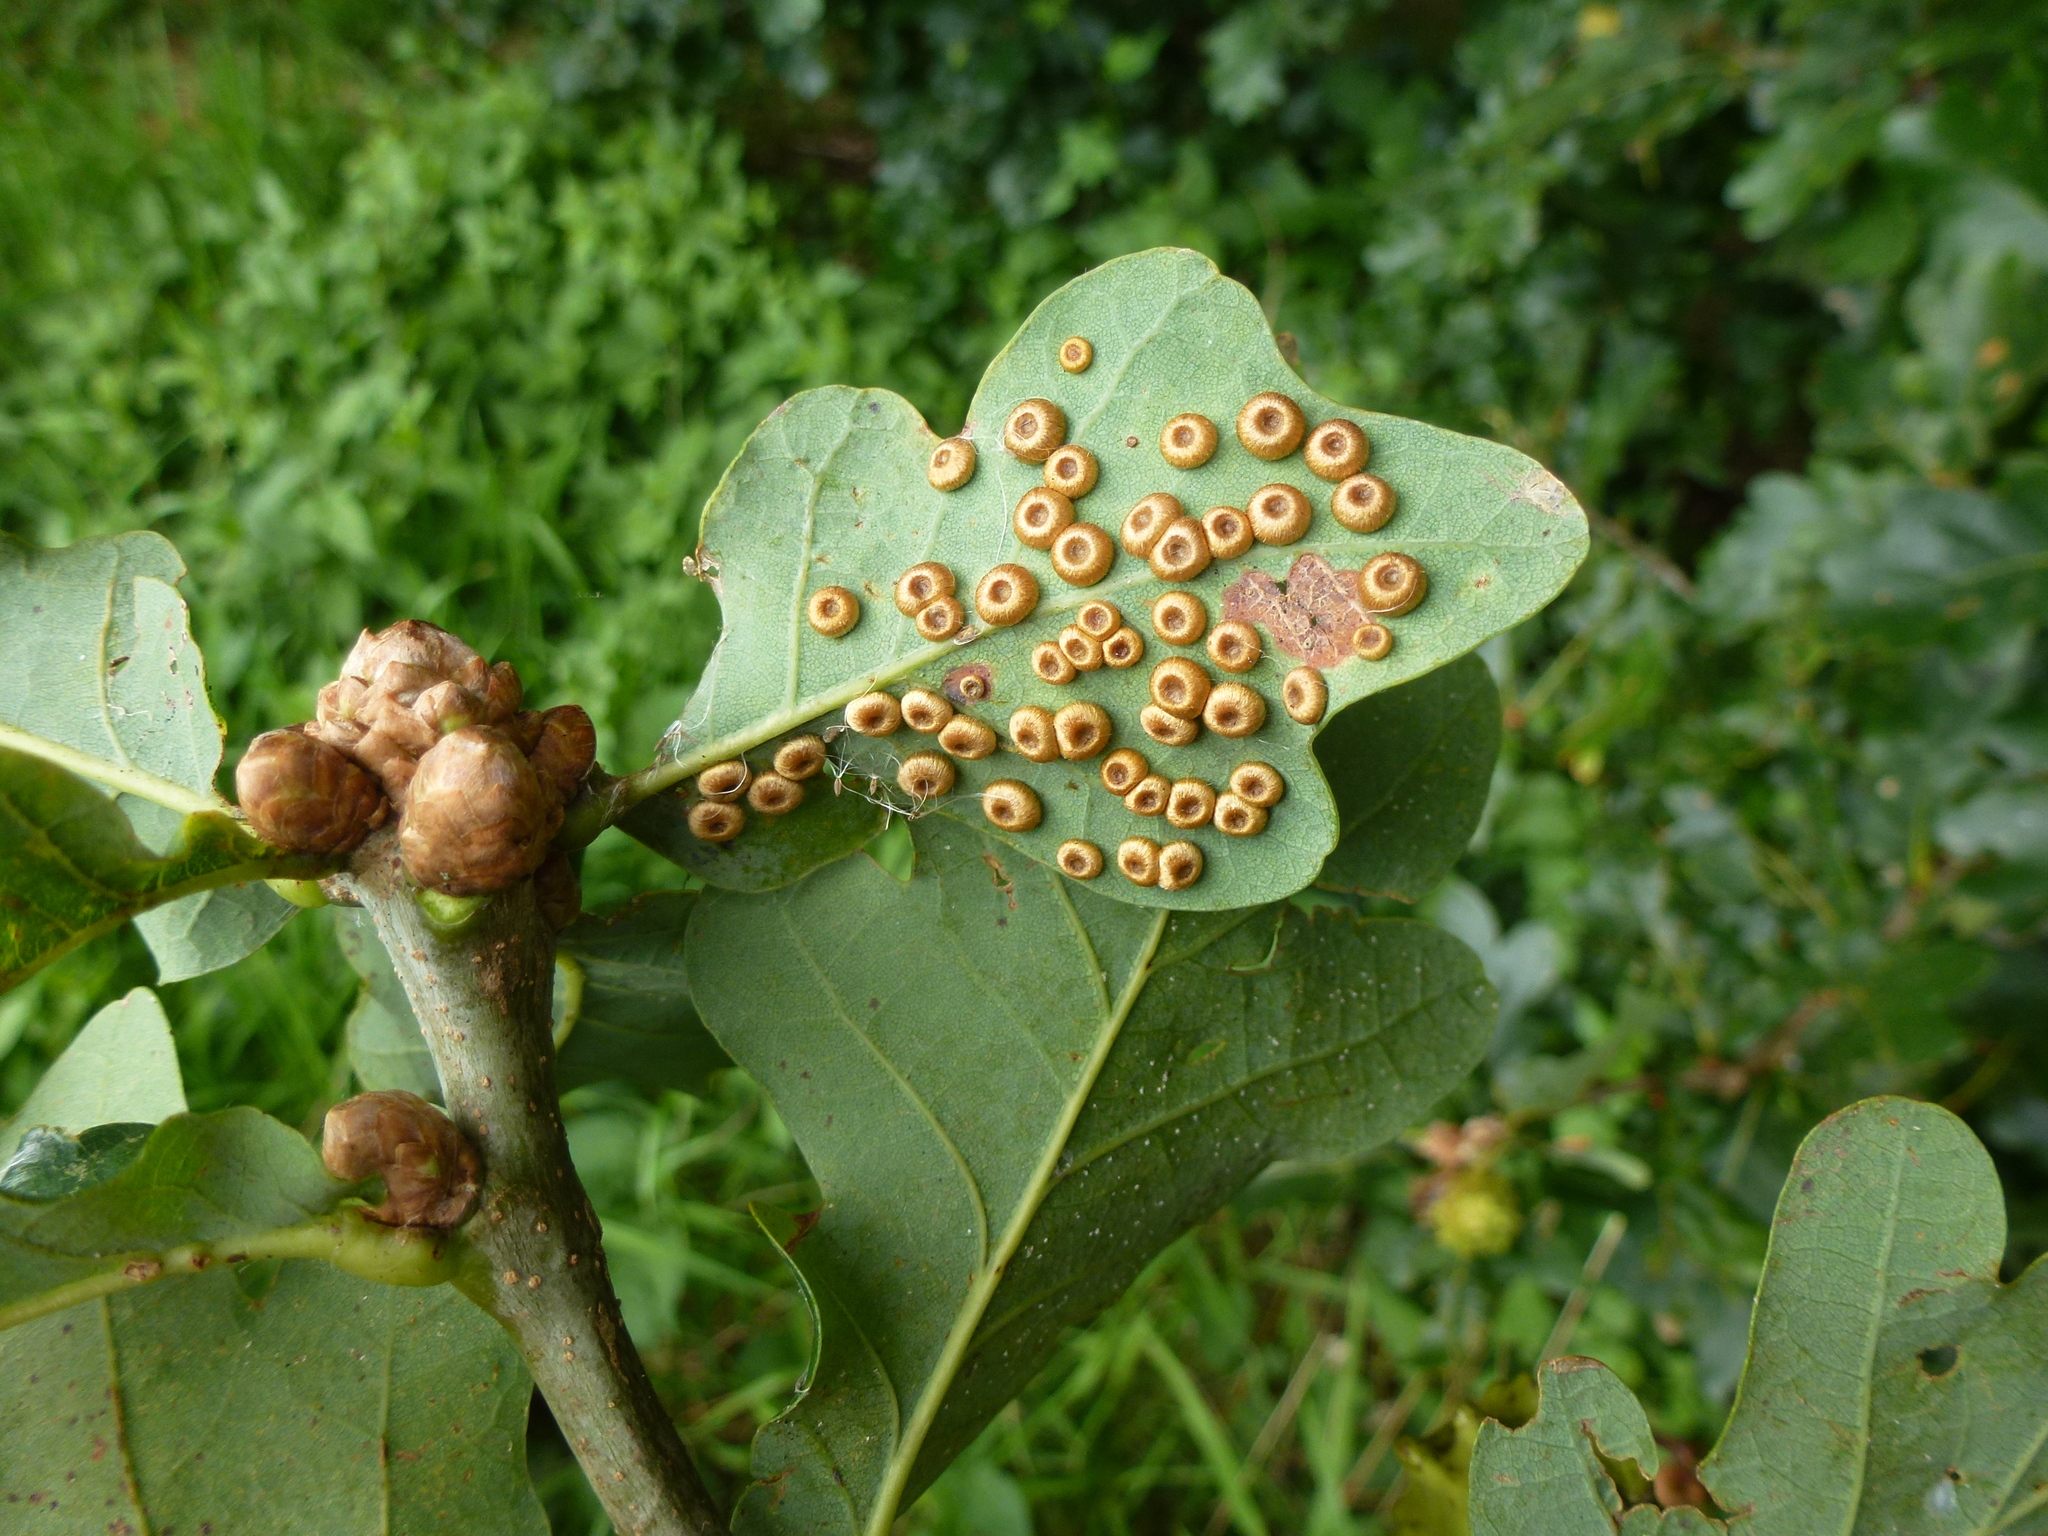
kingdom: Animalia
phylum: Arthropoda
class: Insecta
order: Hymenoptera
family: Cynipidae
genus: Neuroterus
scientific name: Neuroterus numismalis
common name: Silk-button spangle gall
